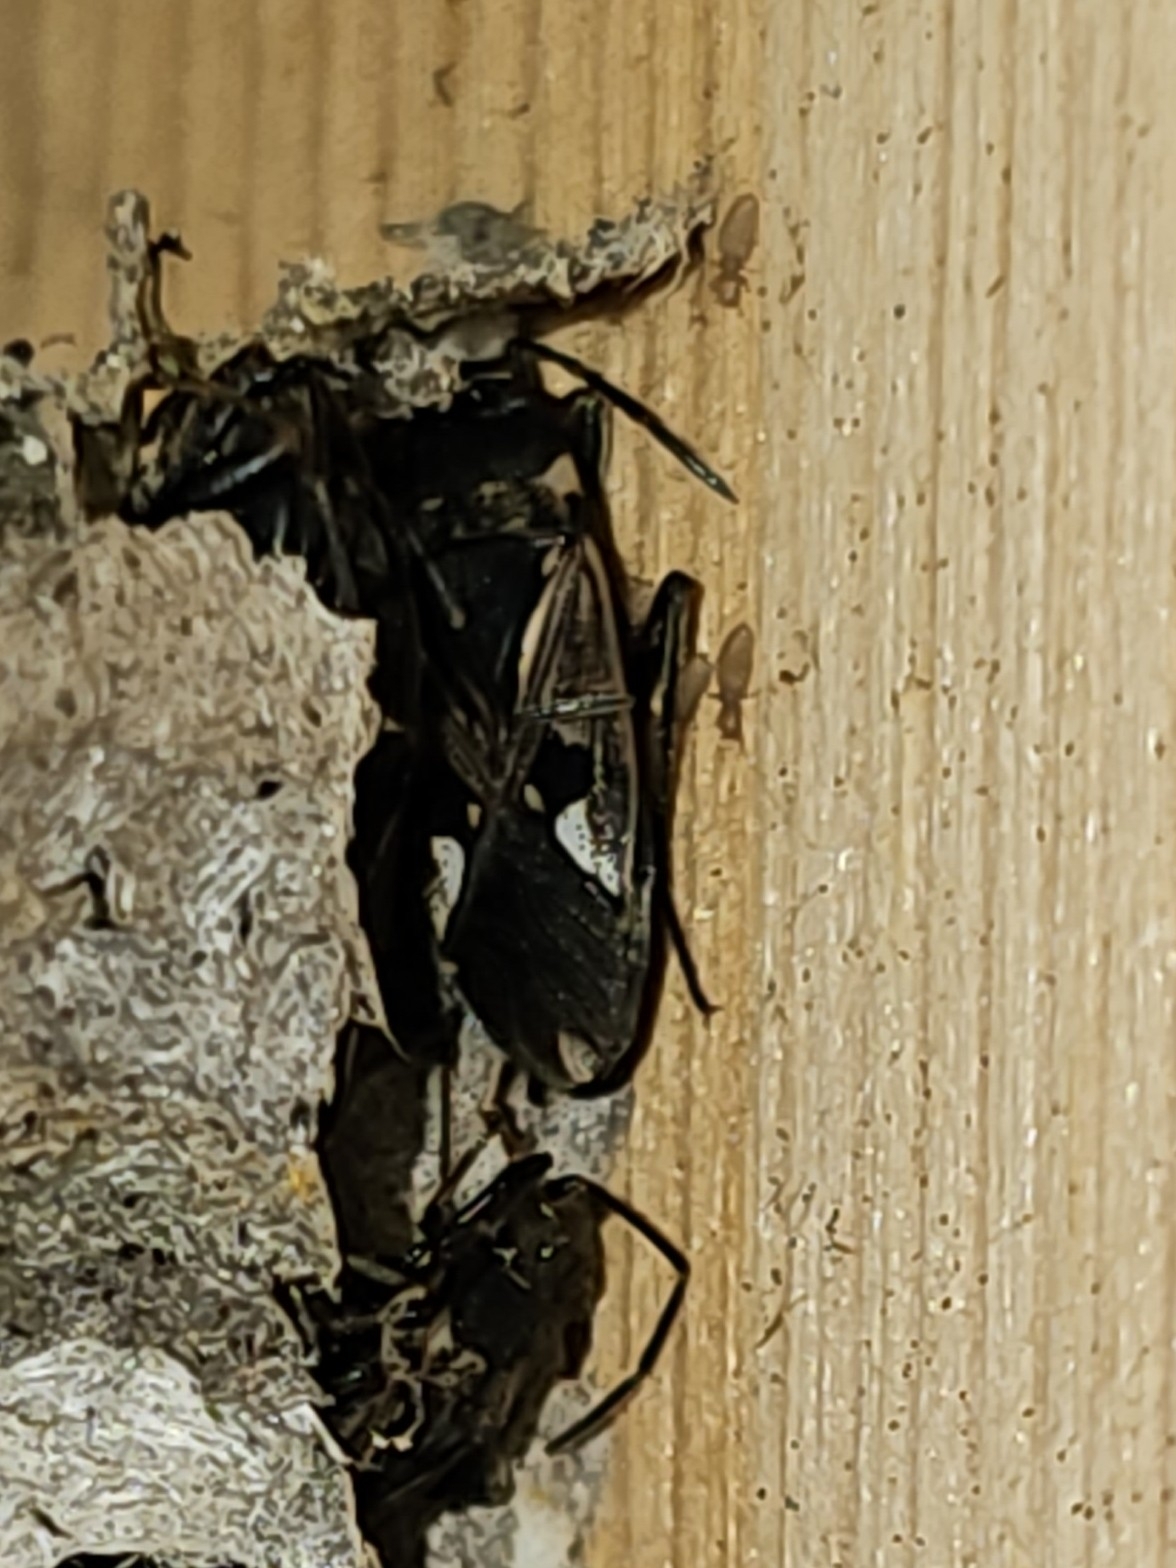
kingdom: Animalia
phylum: Arthropoda
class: Insecta
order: Hemiptera
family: Rhyparochromidae
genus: Rhyparochromus
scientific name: Rhyparochromus vulgaris
